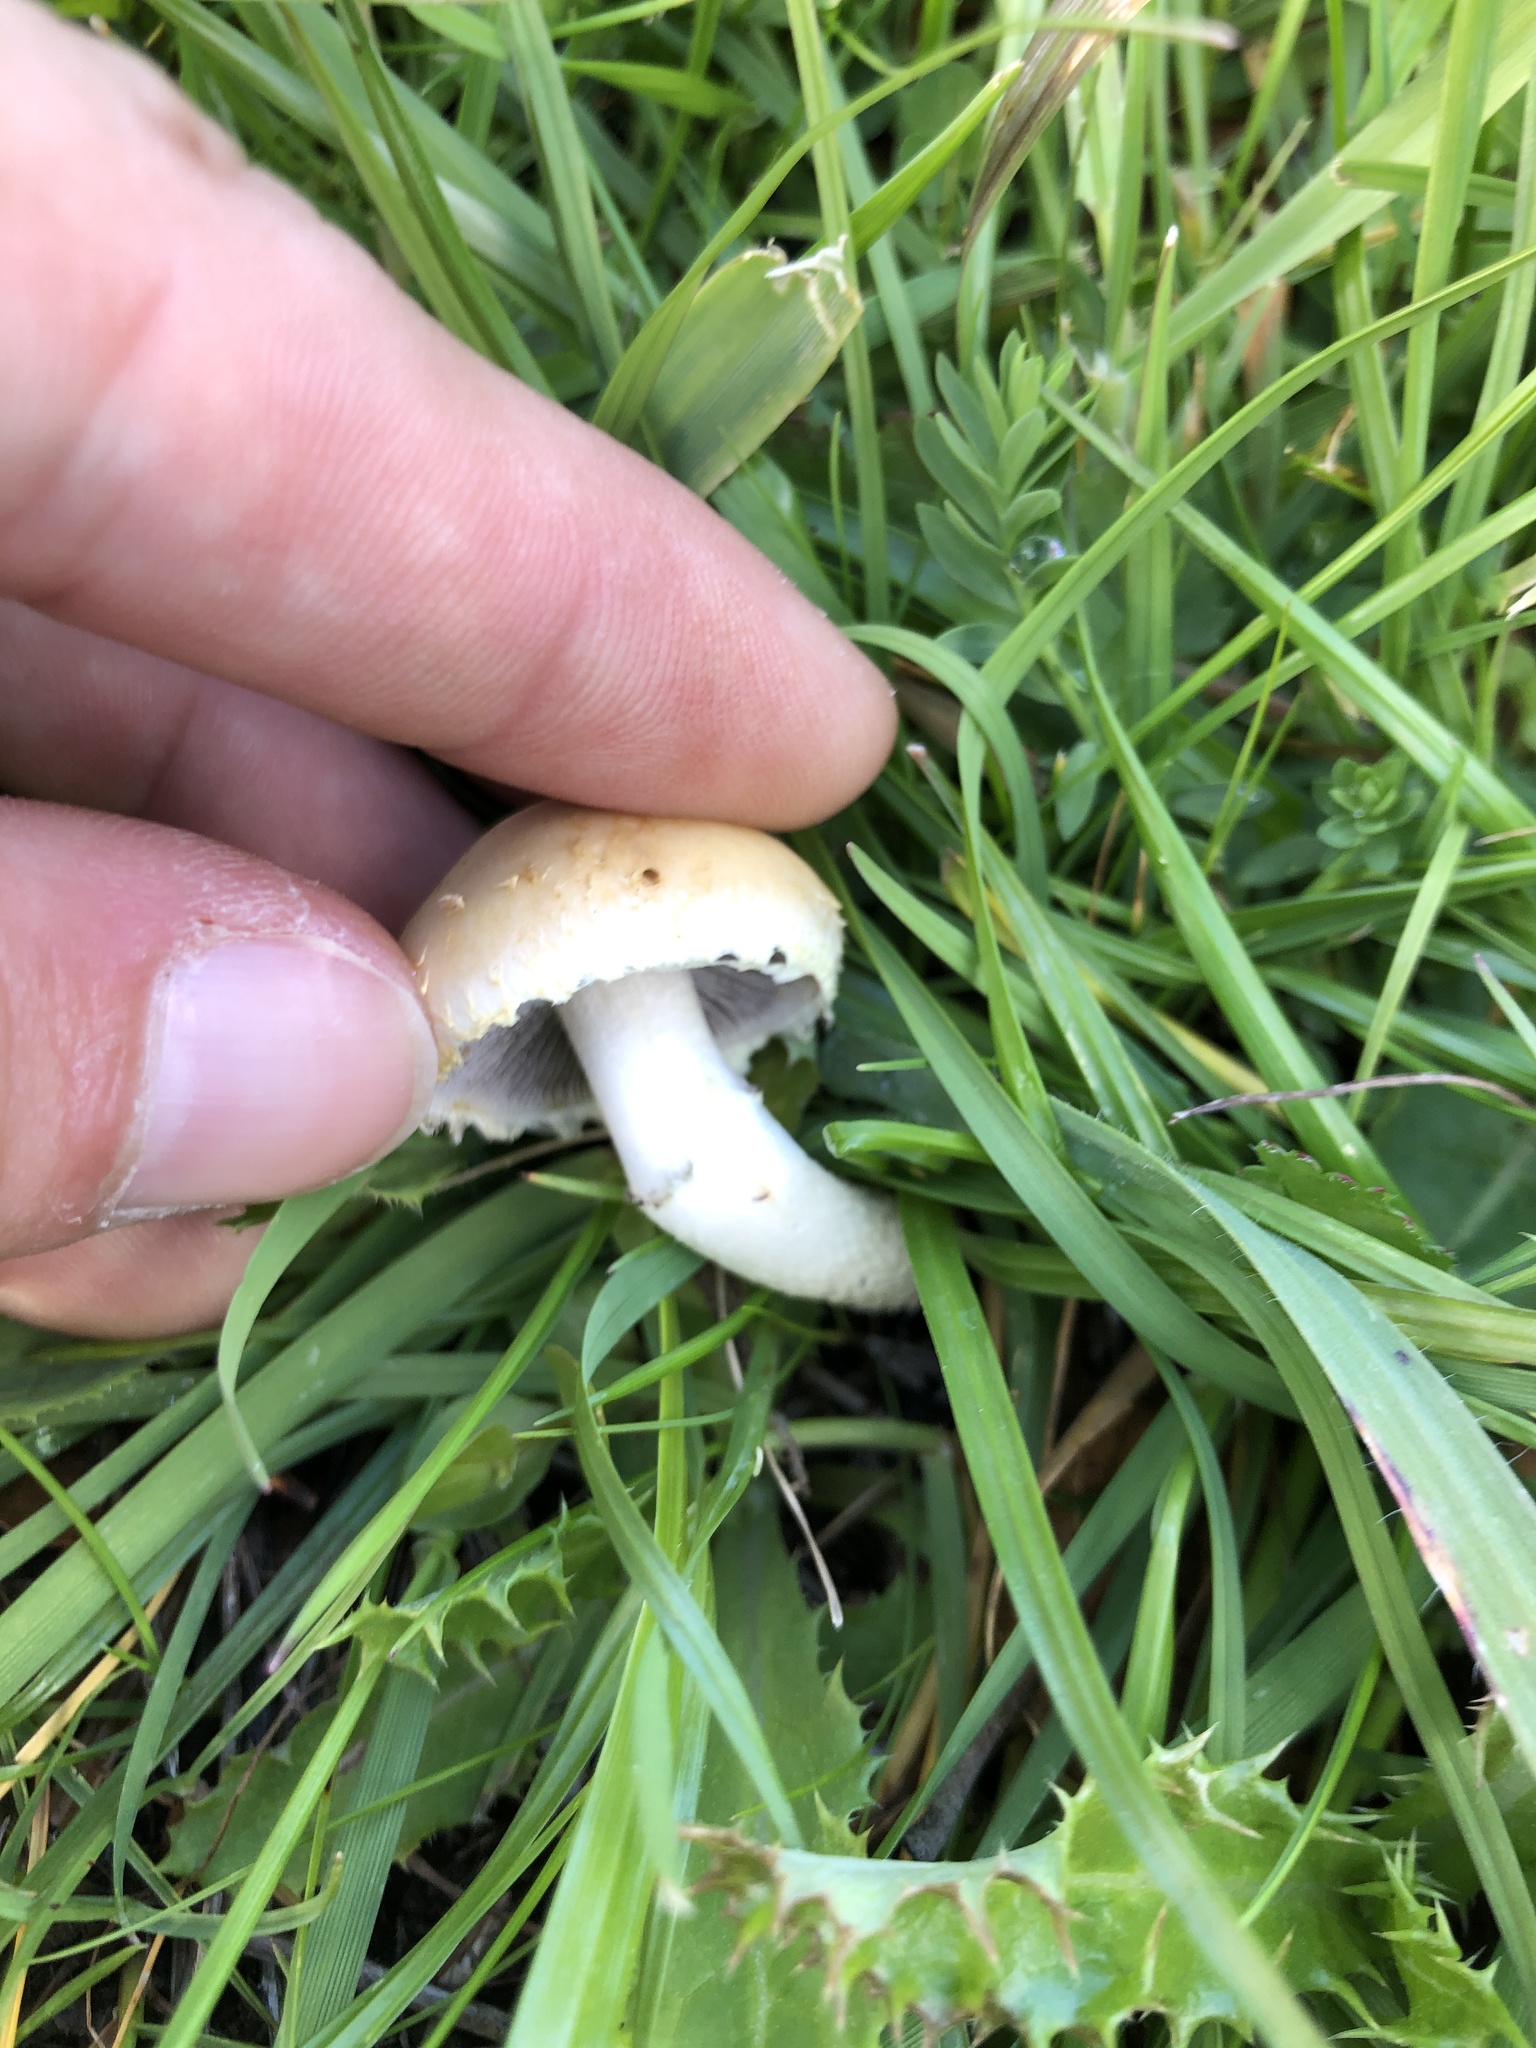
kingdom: Fungi
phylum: Basidiomycota
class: Agaricomycetes
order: Agaricales
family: Strophariaceae
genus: Leratiomyces
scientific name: Leratiomyces percevalii
